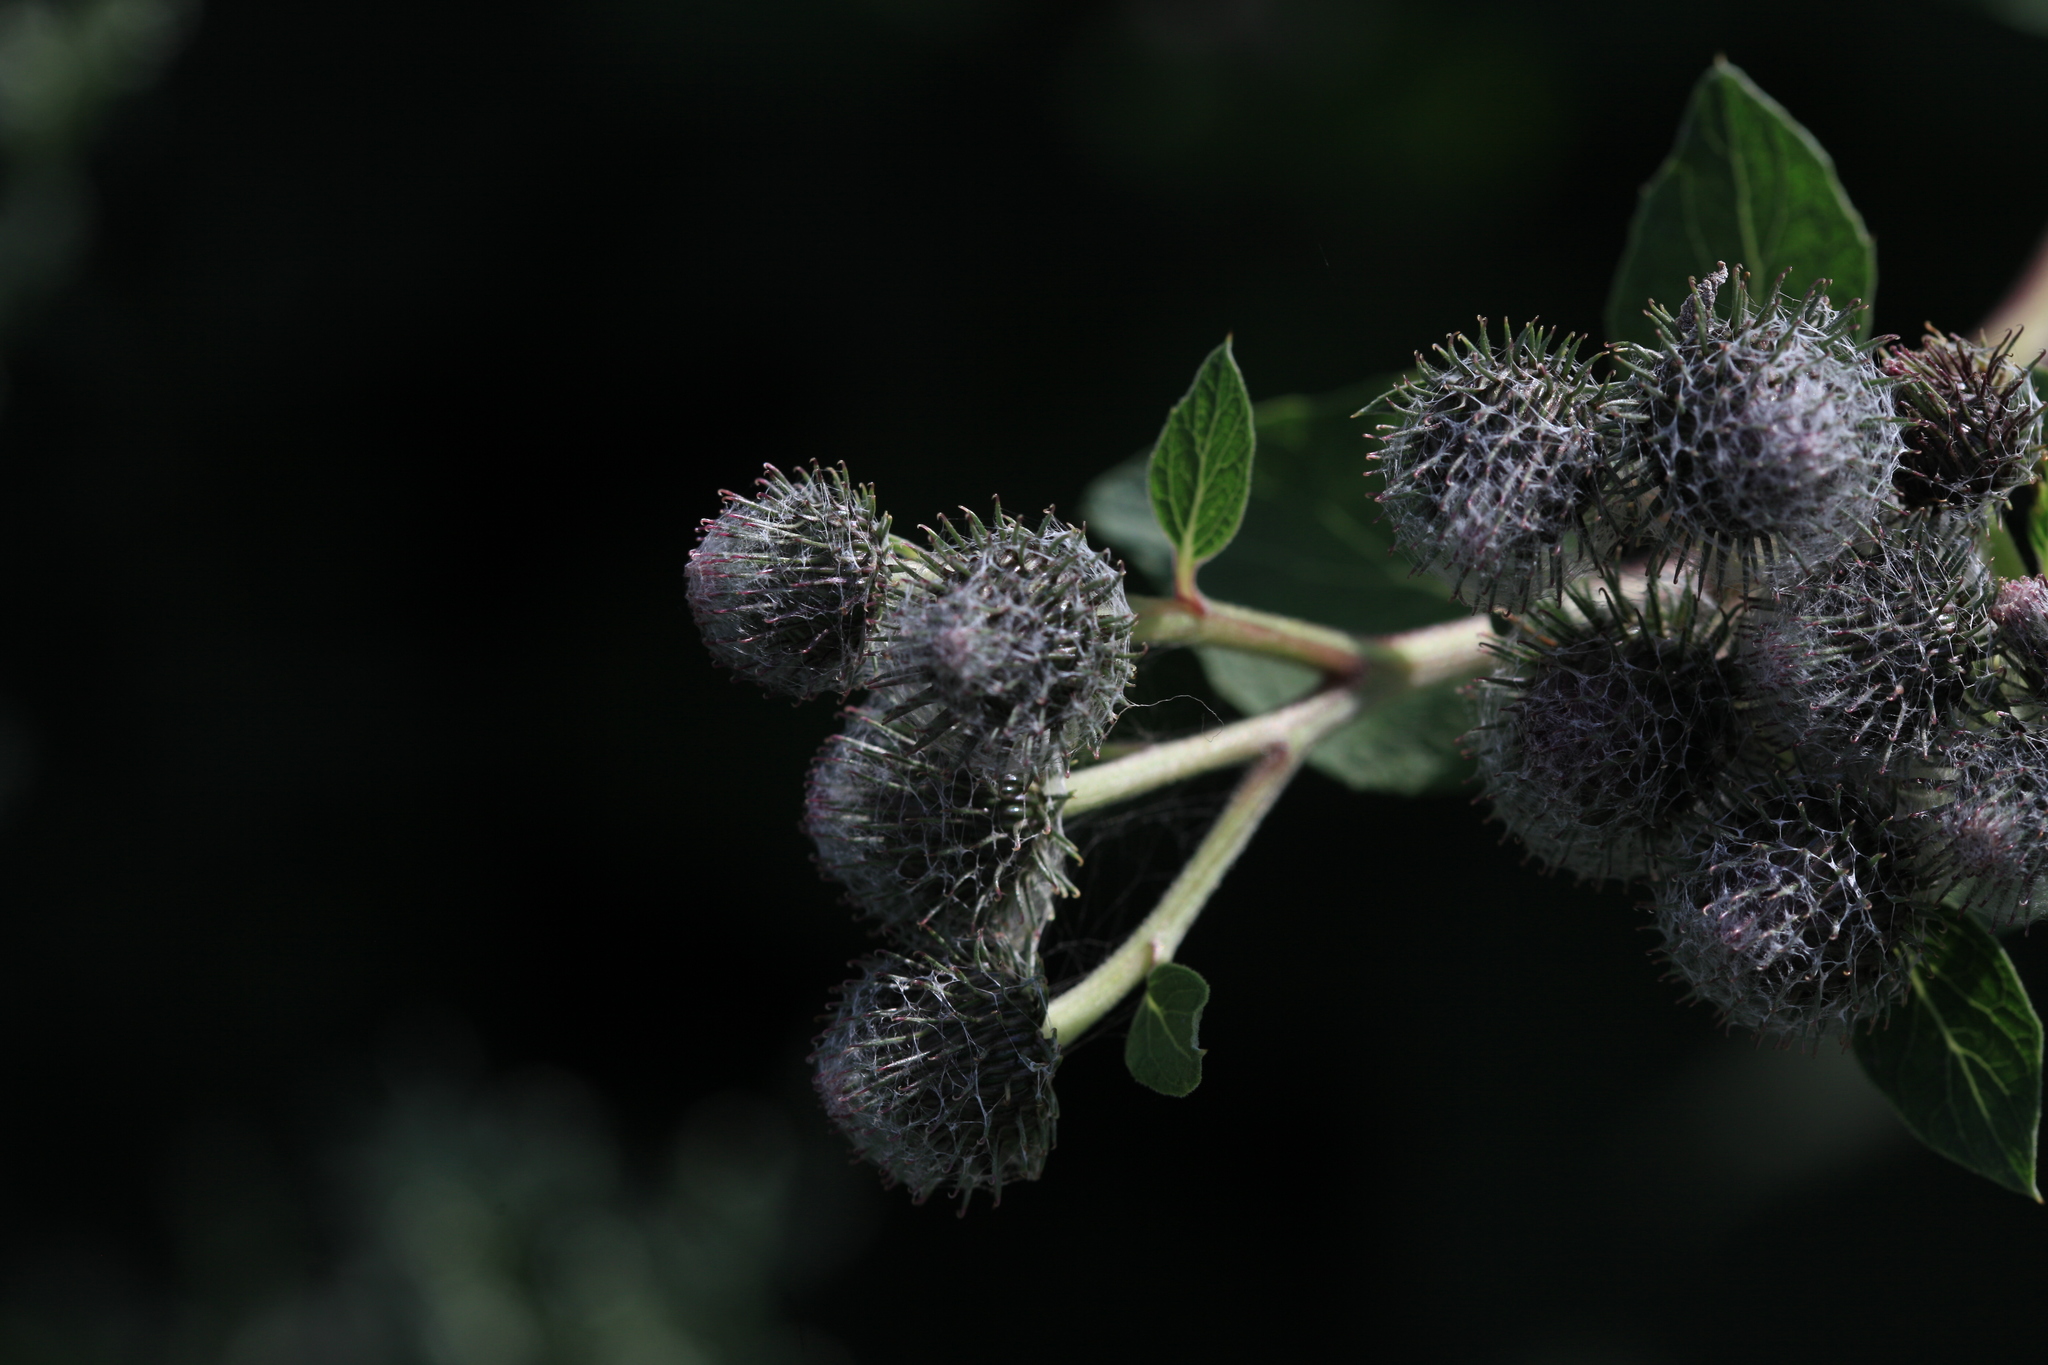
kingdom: Plantae
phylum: Tracheophyta
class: Magnoliopsida
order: Asterales
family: Asteraceae
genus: Arctium
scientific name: Arctium tomentosum
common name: Woolly burdock
